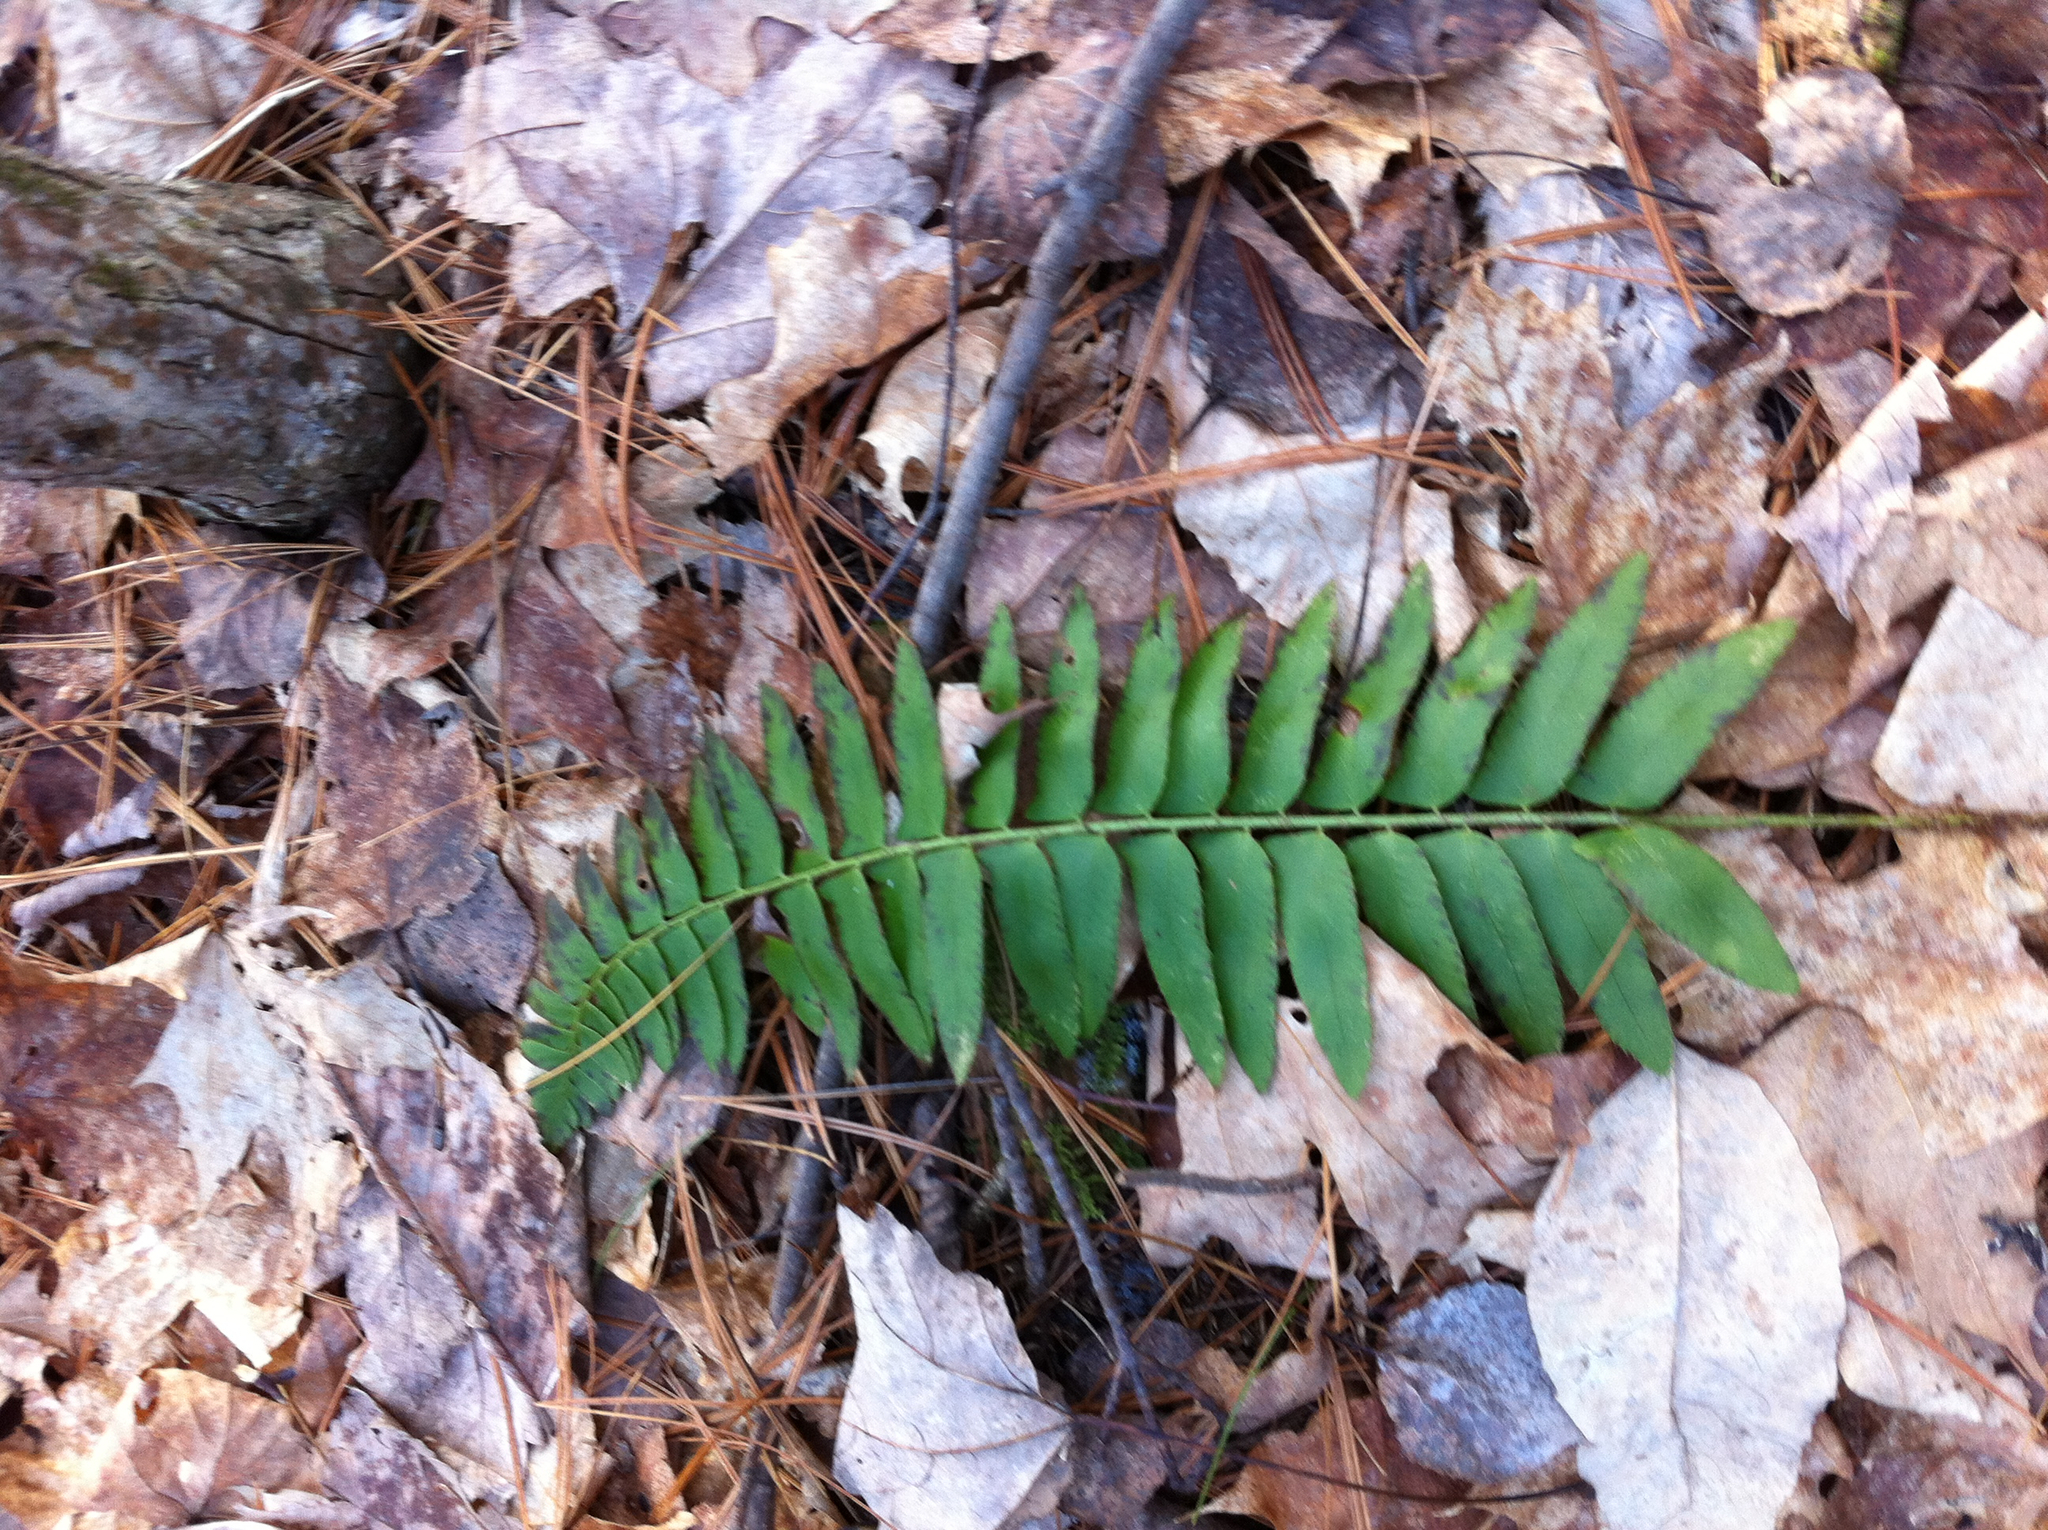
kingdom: Plantae
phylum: Tracheophyta
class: Polypodiopsida
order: Polypodiales
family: Dryopteridaceae
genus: Polystichum
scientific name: Polystichum acrostichoides
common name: Christmas fern
